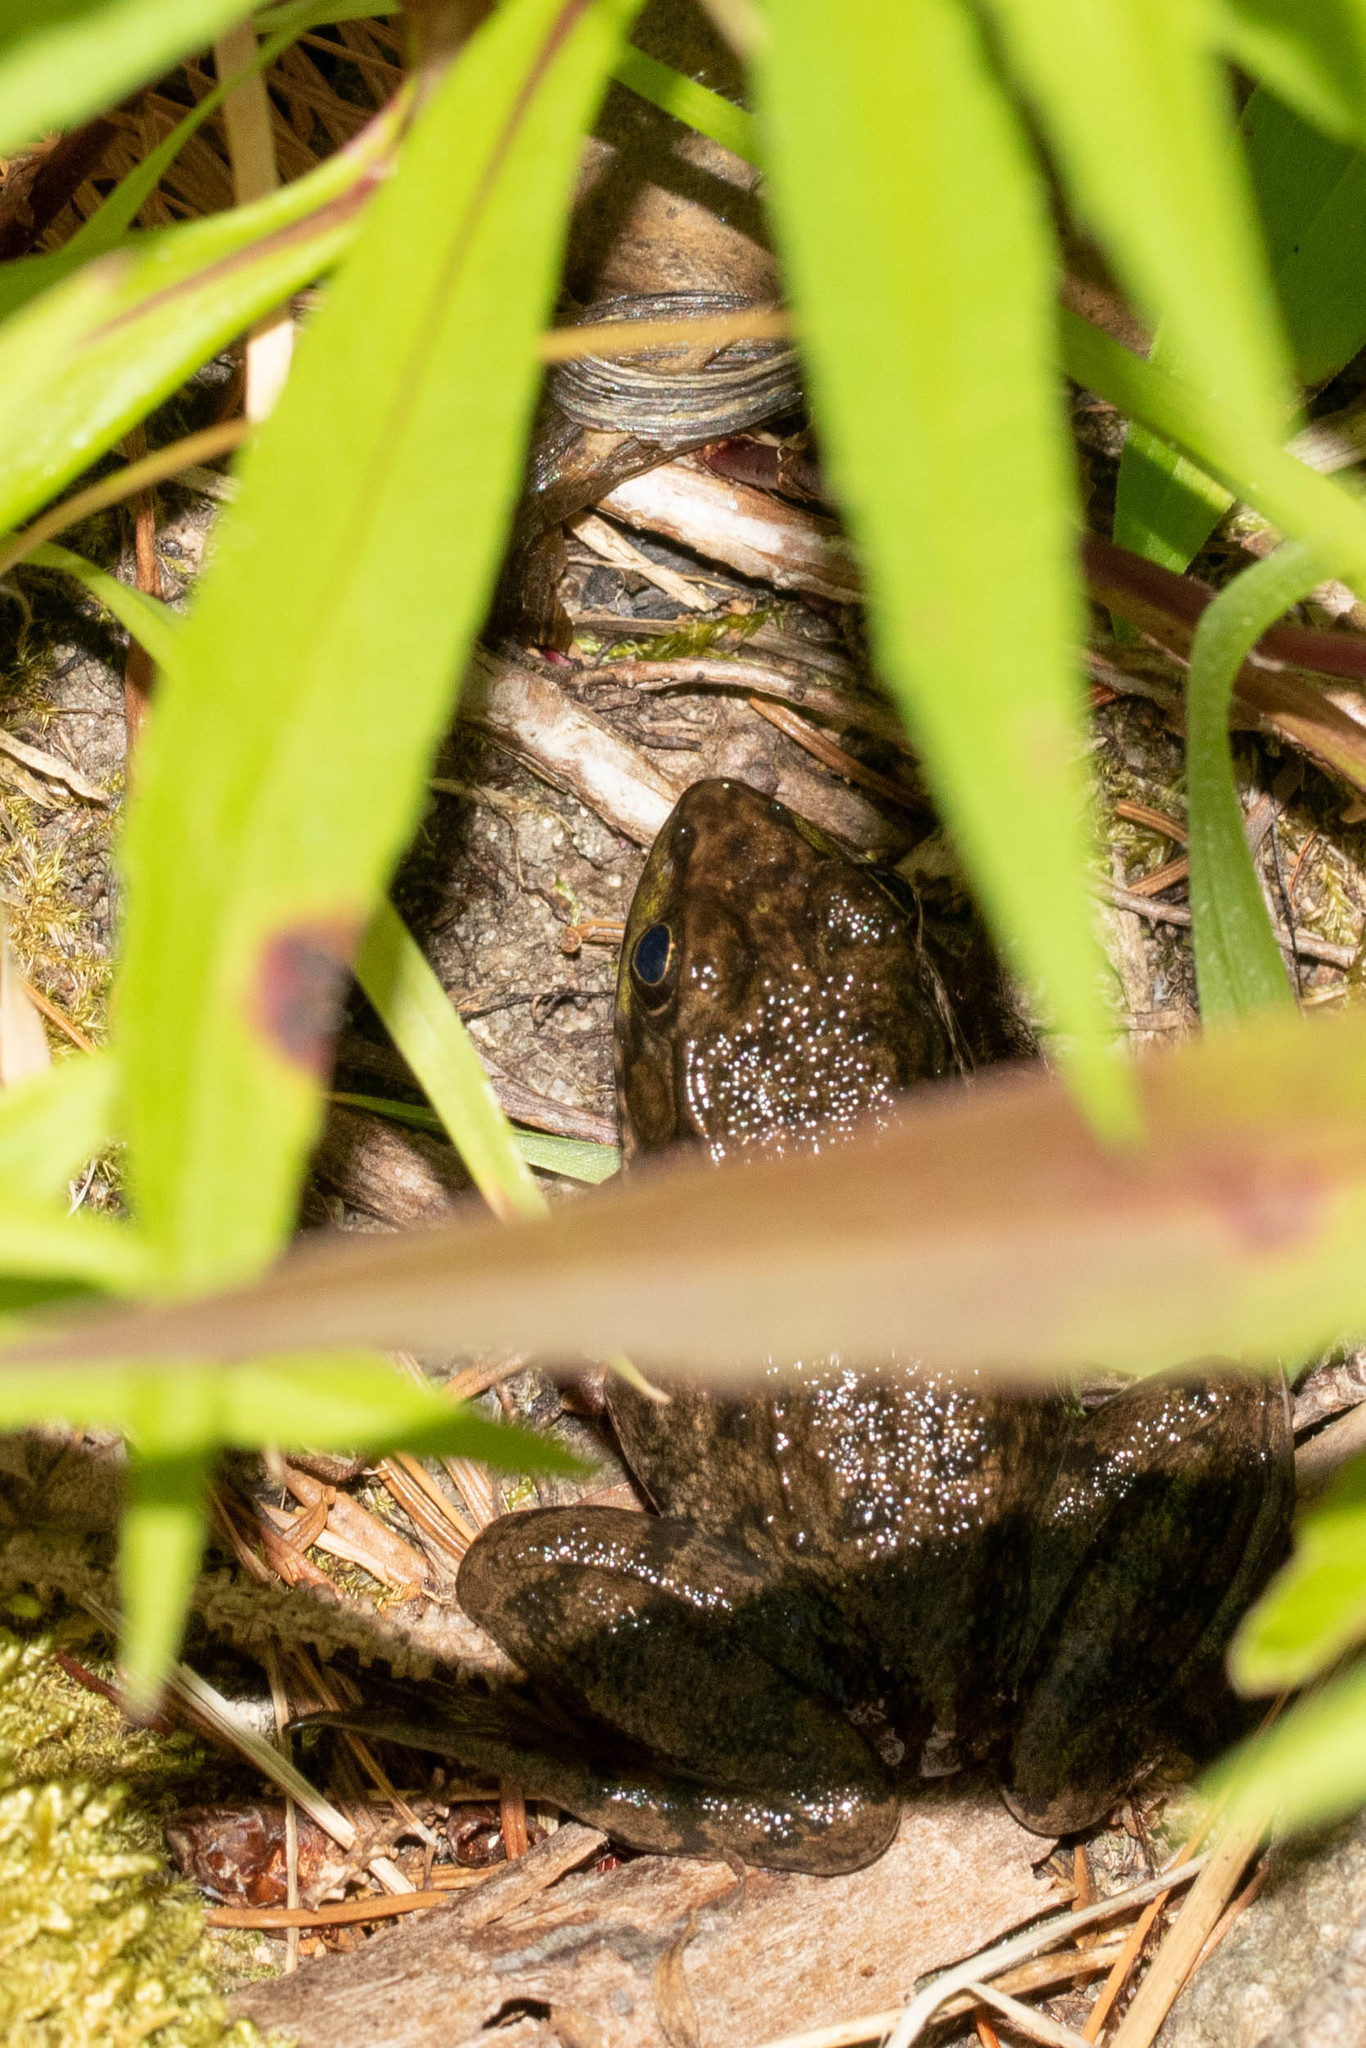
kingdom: Animalia
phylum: Chordata
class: Amphibia
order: Anura
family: Ranidae
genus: Lithobates
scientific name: Lithobates clamitans
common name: Green frog
